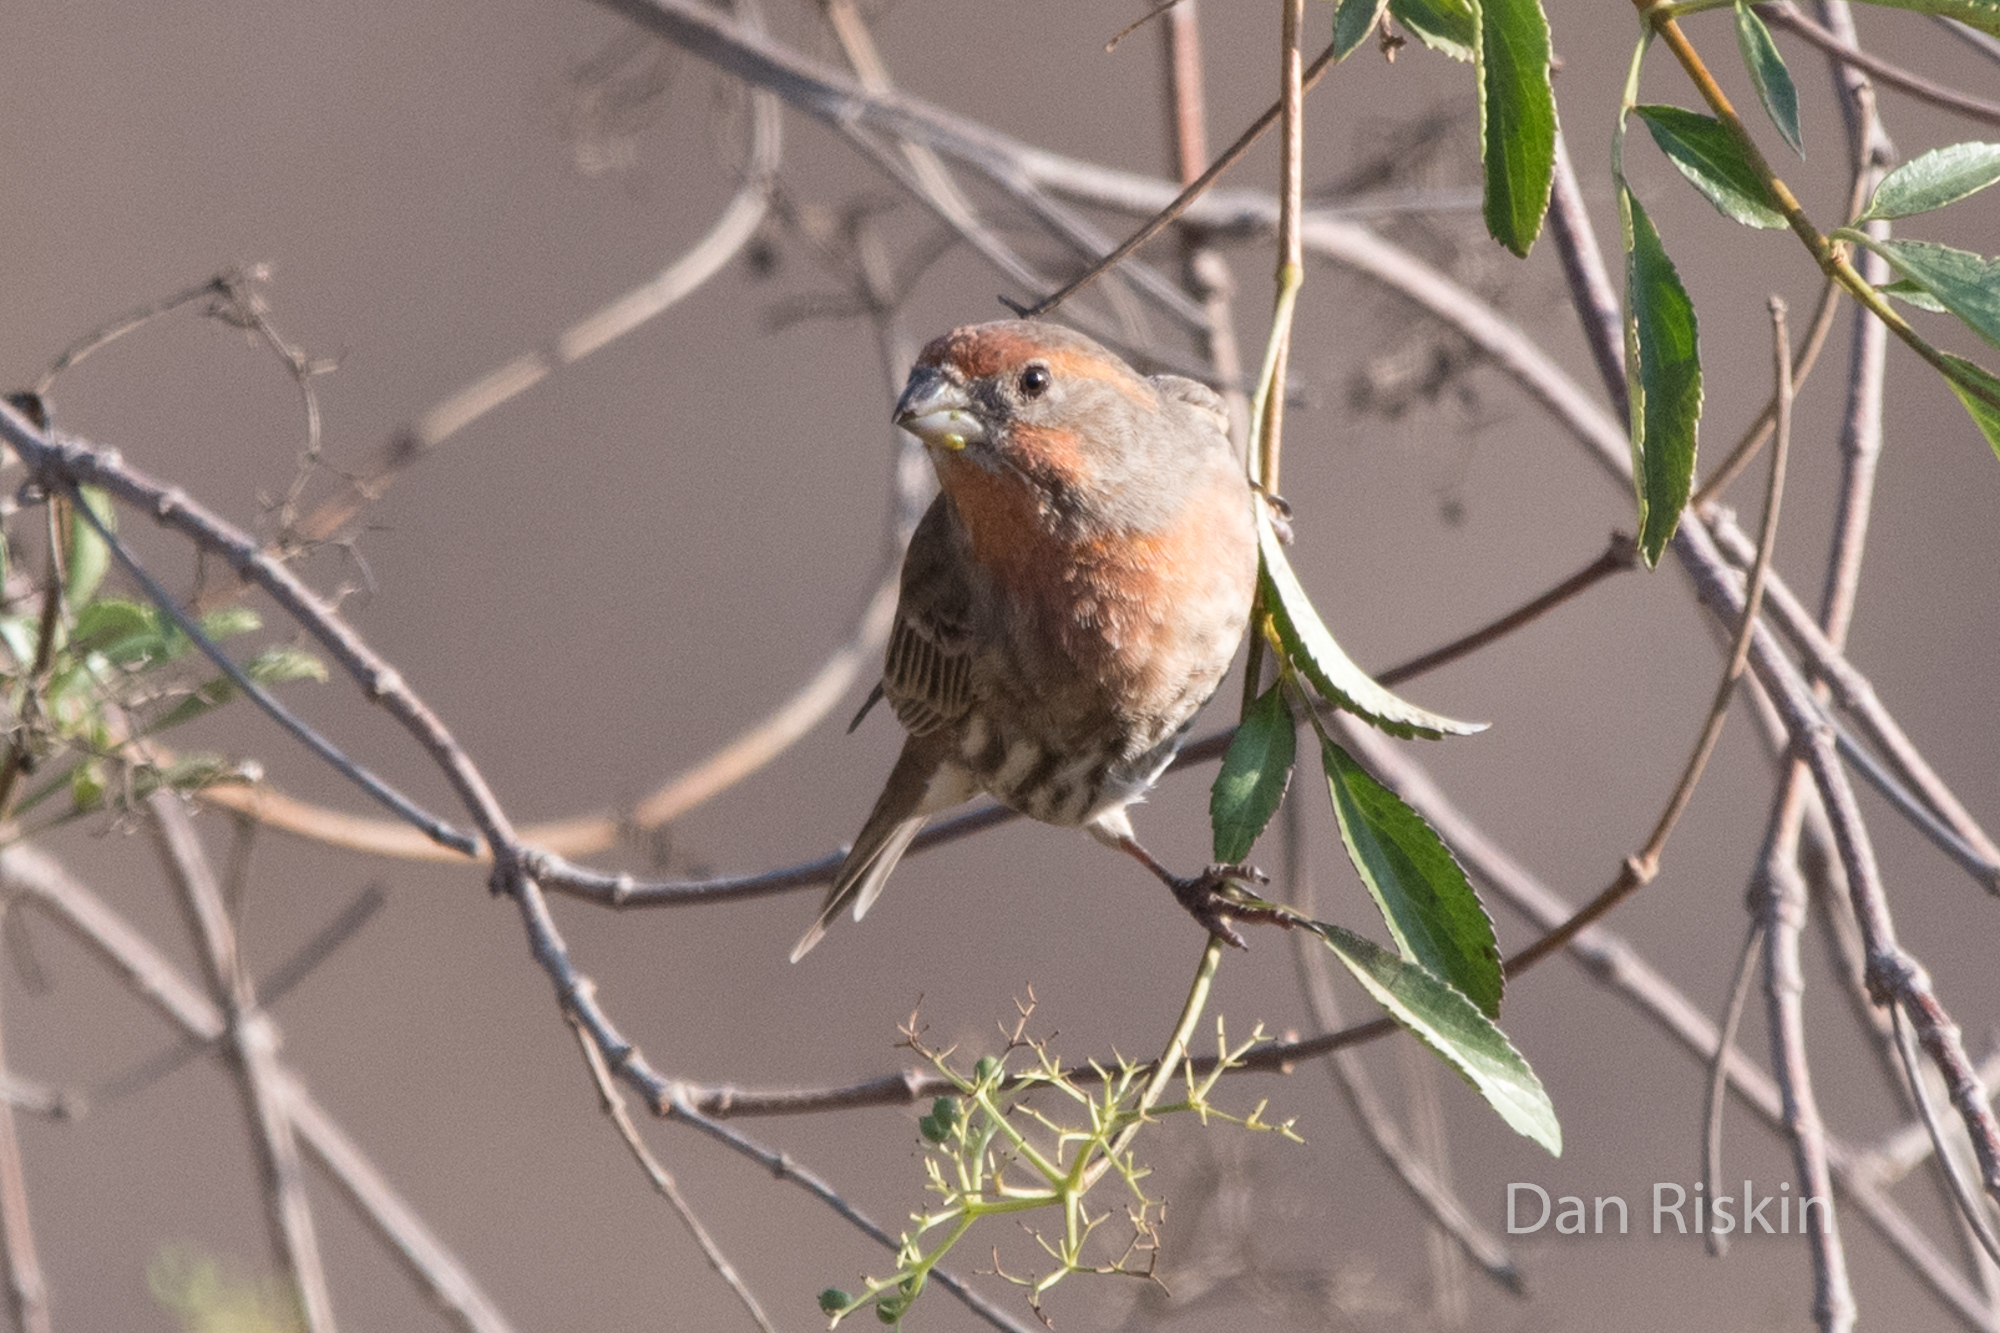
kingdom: Animalia
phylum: Chordata
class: Aves
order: Passeriformes
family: Fringillidae
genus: Haemorhous
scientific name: Haemorhous mexicanus
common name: House finch
